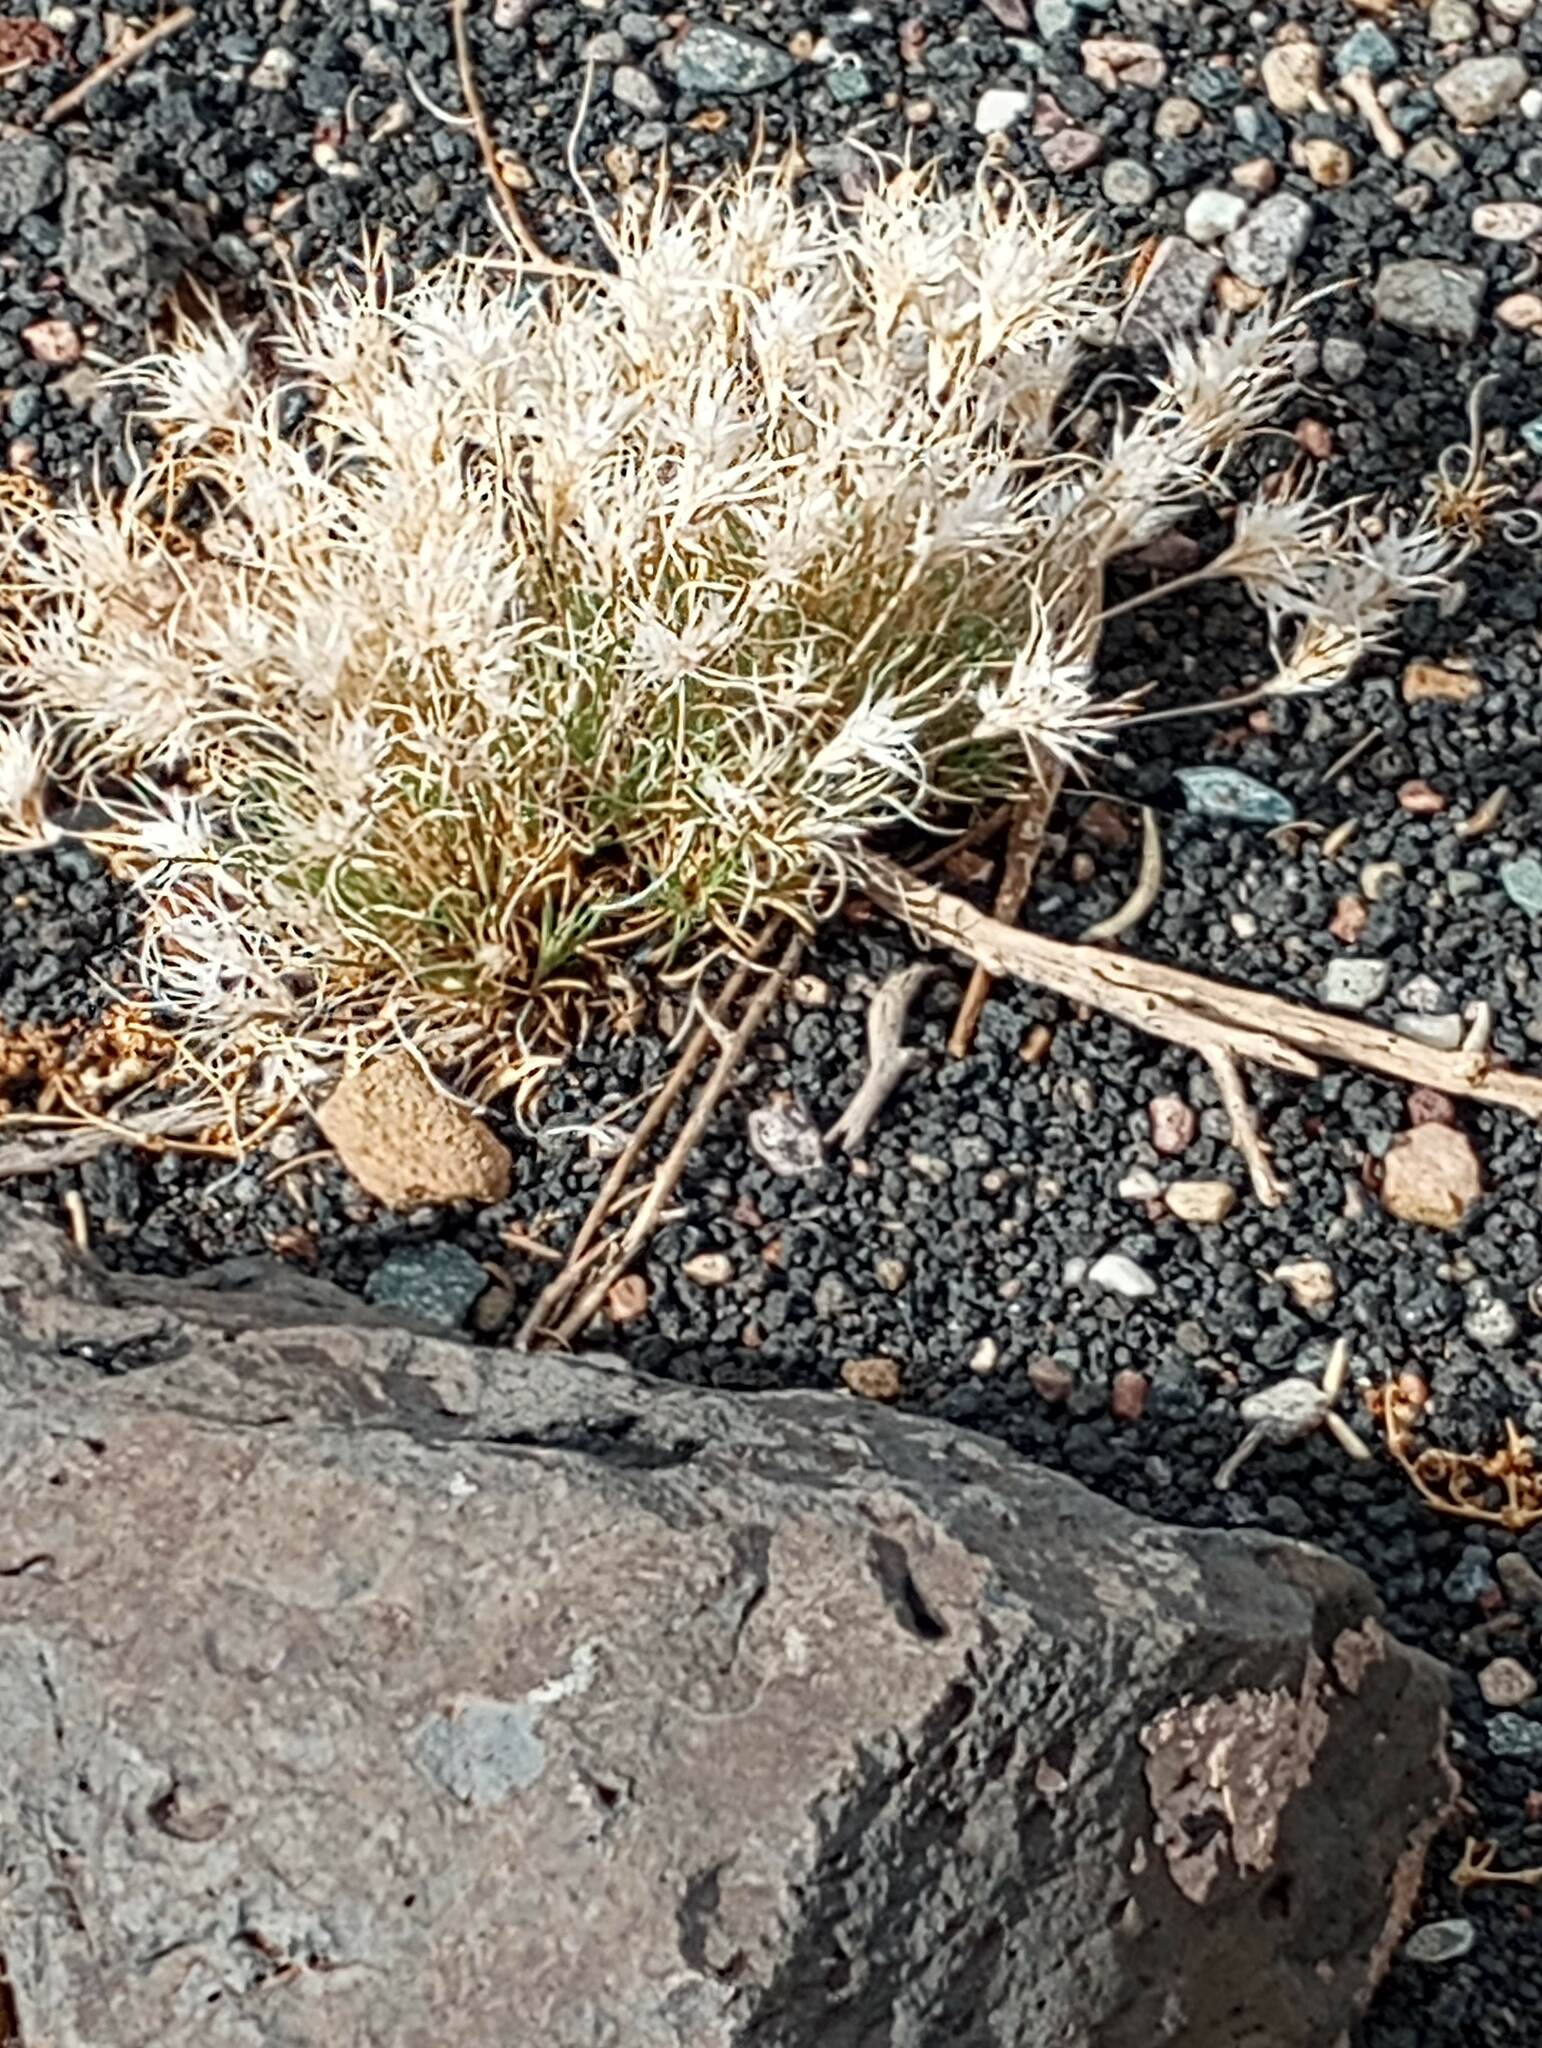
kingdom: Plantae
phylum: Tracheophyta
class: Liliopsida
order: Poales
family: Poaceae
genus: Dasyochloa
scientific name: Dasyochloa pulchella
